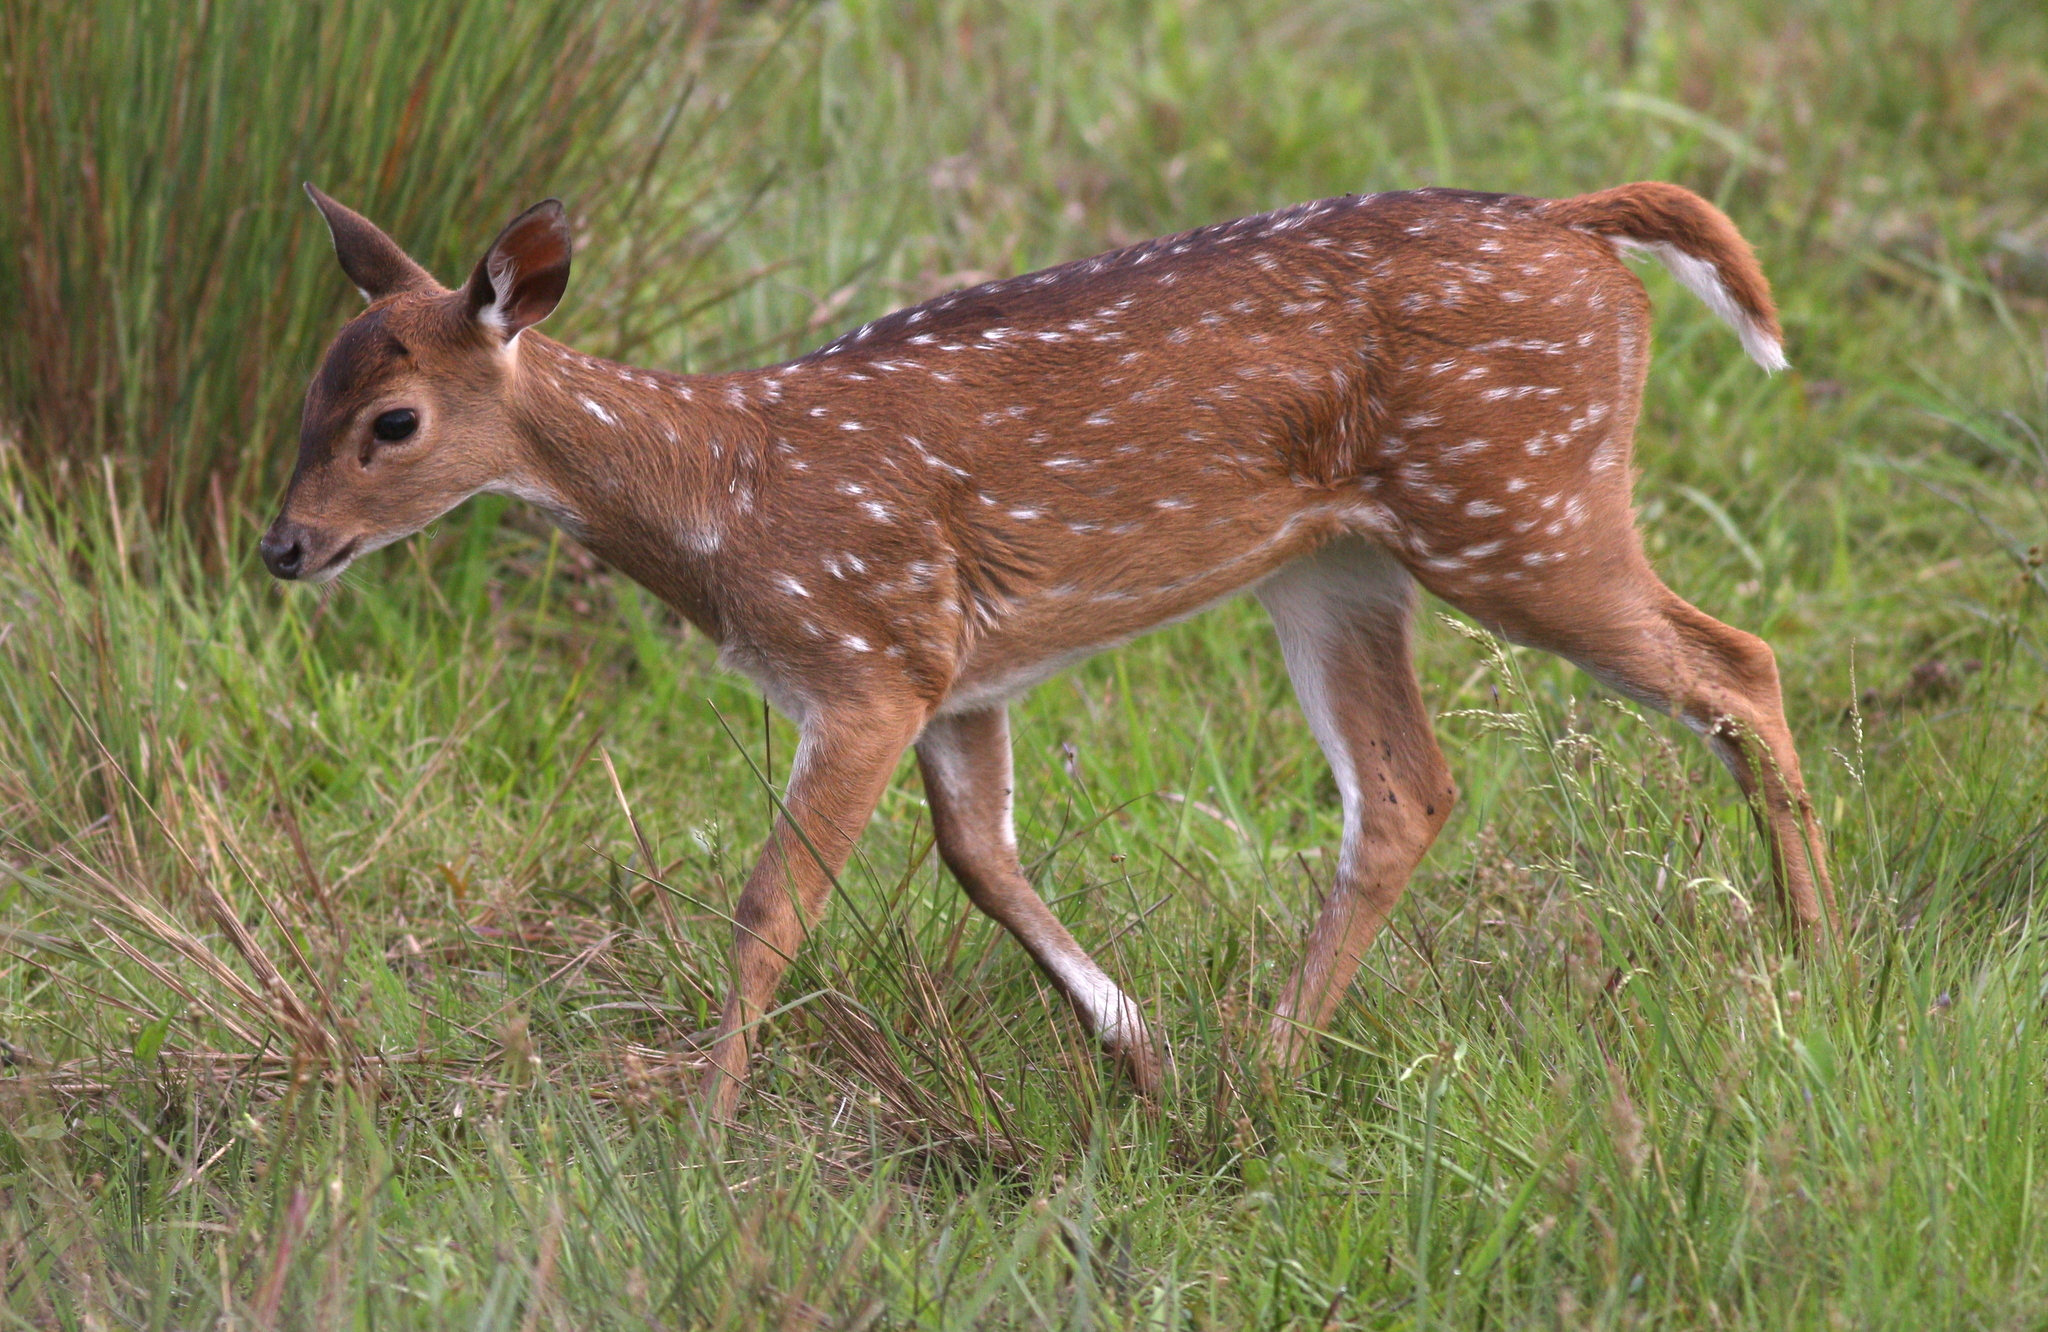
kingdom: Animalia
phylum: Chordata
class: Mammalia
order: Artiodactyla
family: Cervidae
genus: Axis
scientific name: Axis axis
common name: Chital
